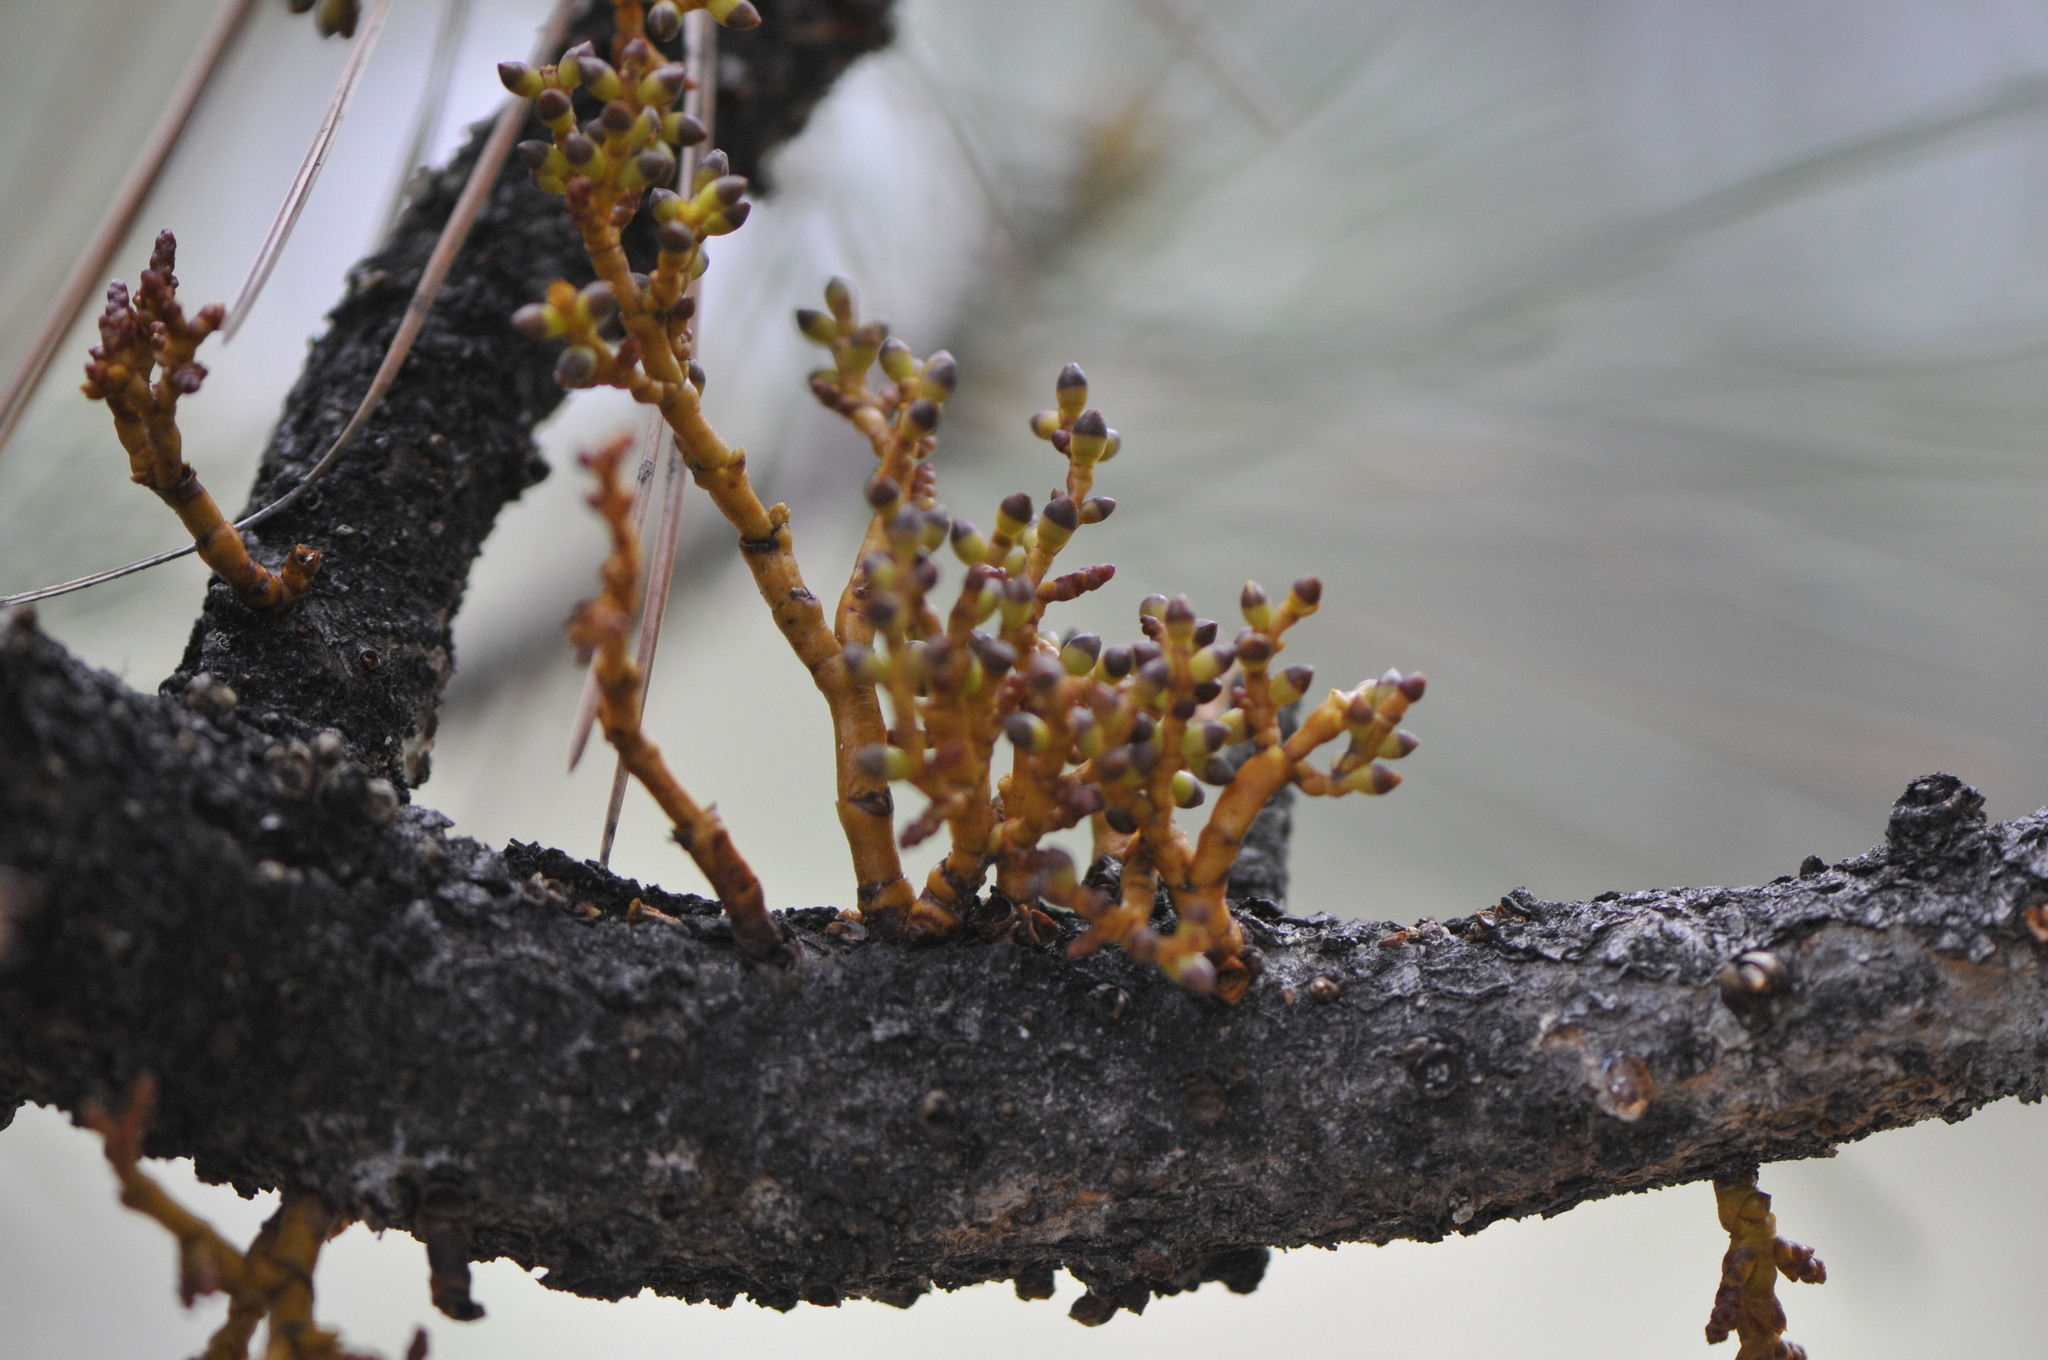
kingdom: Plantae
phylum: Tracheophyta
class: Magnoliopsida
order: Santalales
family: Viscaceae
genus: Arceuthobium
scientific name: Arceuthobium vaginatum
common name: Southwestern dwarf-mistletoe
